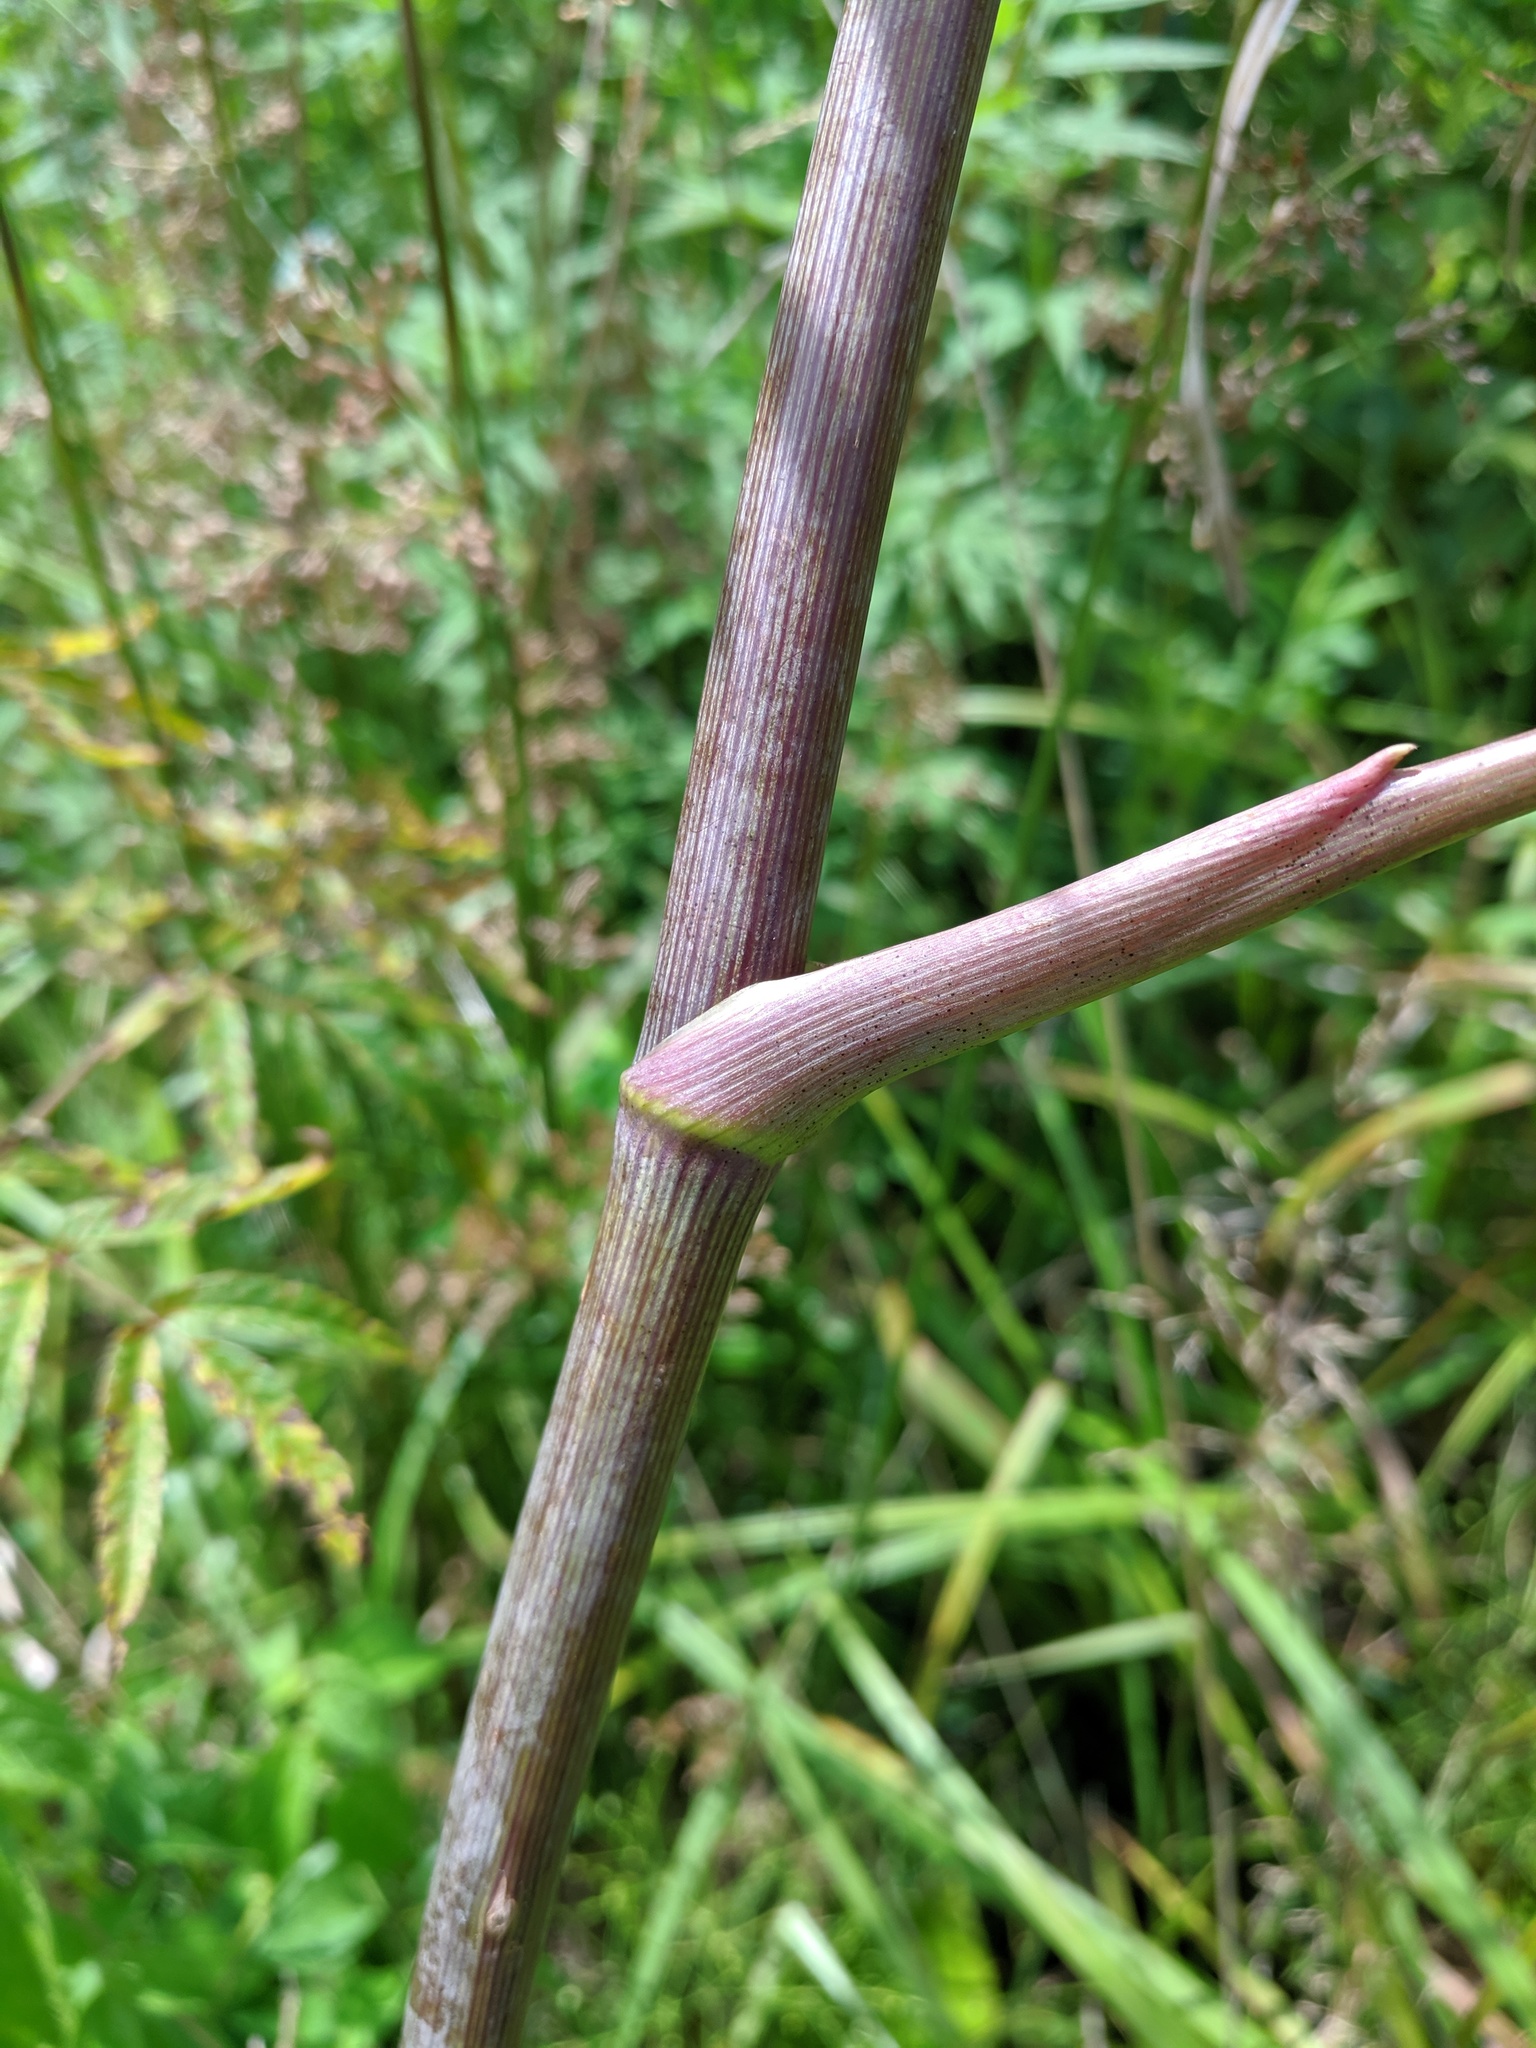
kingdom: Plantae
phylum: Tracheophyta
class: Magnoliopsida
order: Apiales
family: Apiaceae
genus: Cicuta
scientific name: Cicuta maculata
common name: Spotted cowbane
